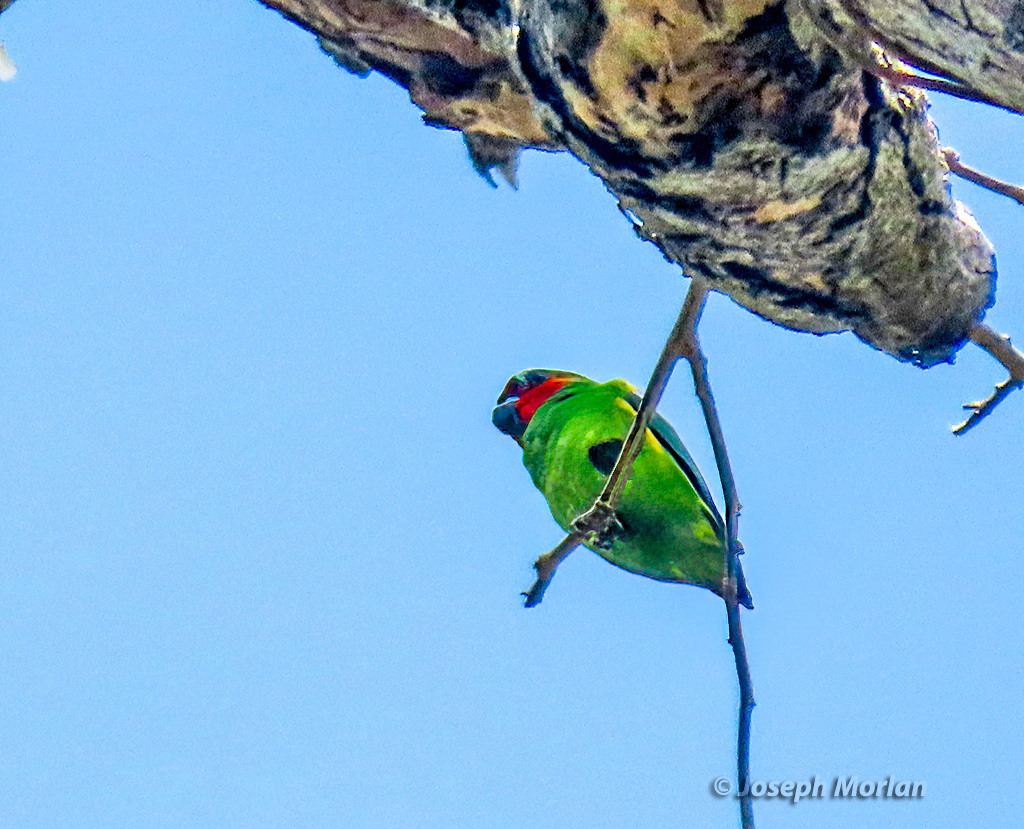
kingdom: Animalia
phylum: Chordata
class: Aves
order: Psittaciformes
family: Psittacidae
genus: Cyclopsitta
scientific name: Cyclopsitta diophthalma
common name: Double-eyed fig parrot
